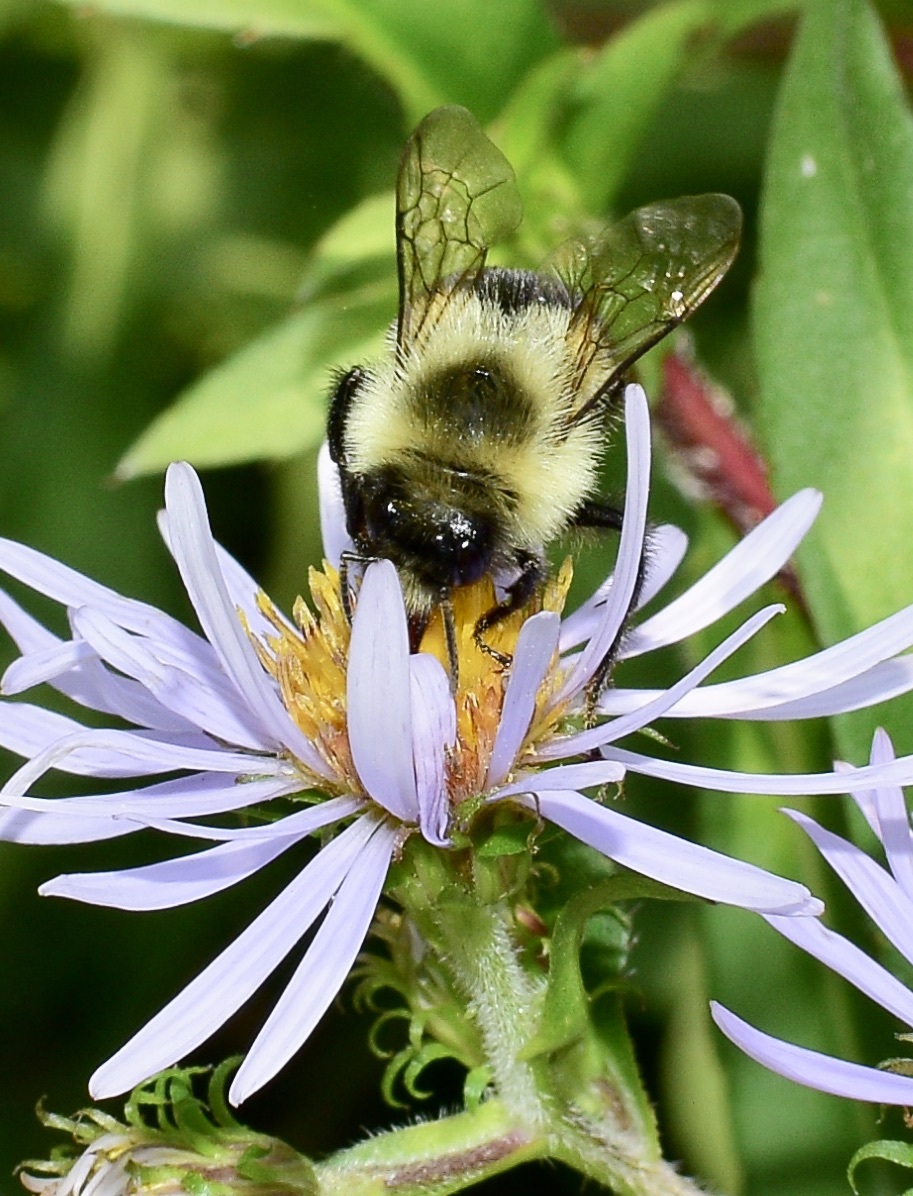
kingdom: Animalia
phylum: Arthropoda
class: Insecta
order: Hymenoptera
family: Apidae
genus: Bombus
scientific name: Bombus impatiens
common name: Common eastern bumble bee
